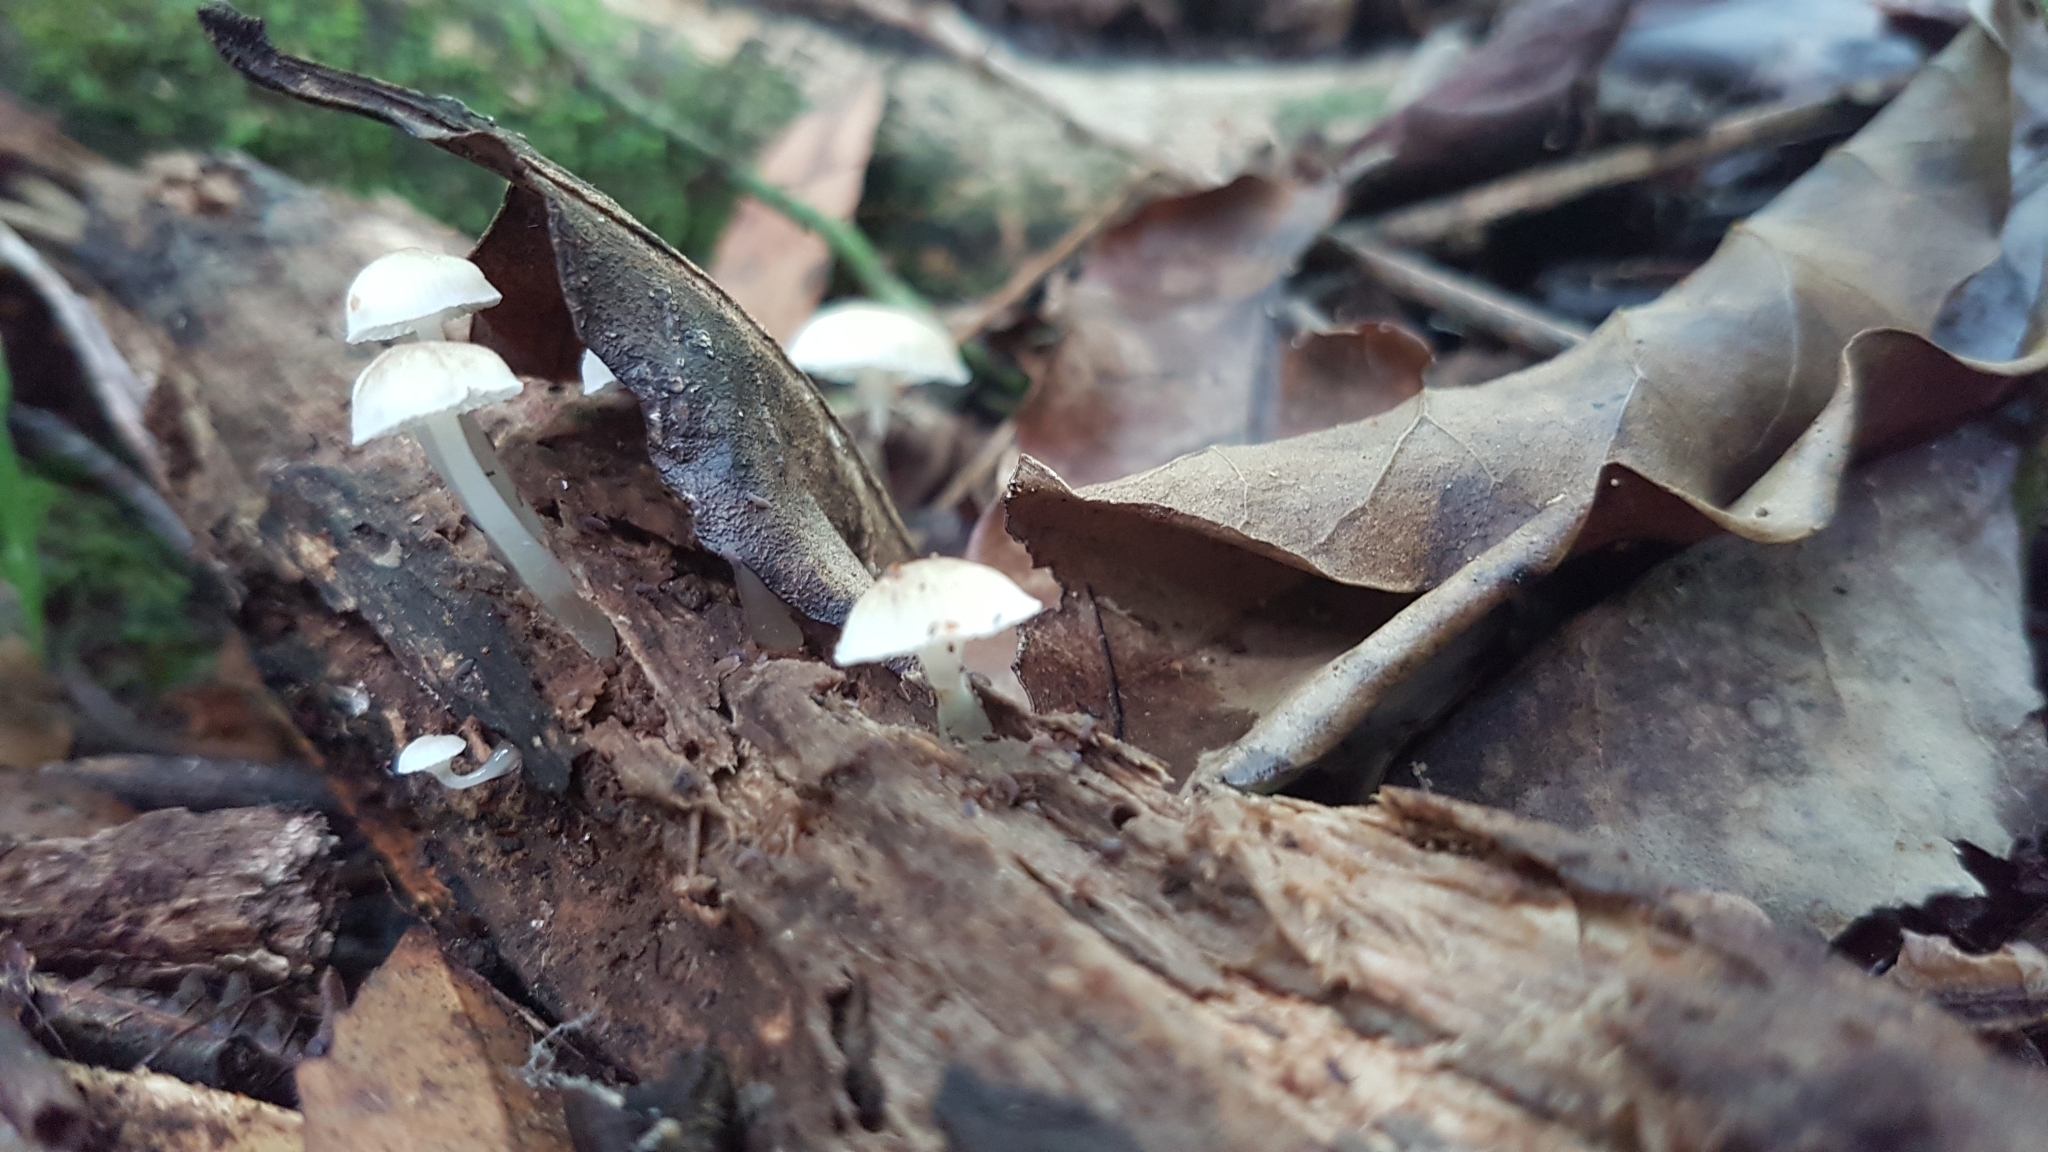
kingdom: Fungi
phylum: Basidiomycota
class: Agaricomycetes
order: Agaricales
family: Mycenaceae
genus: Roridomyces
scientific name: Roridomyces austrororidus
